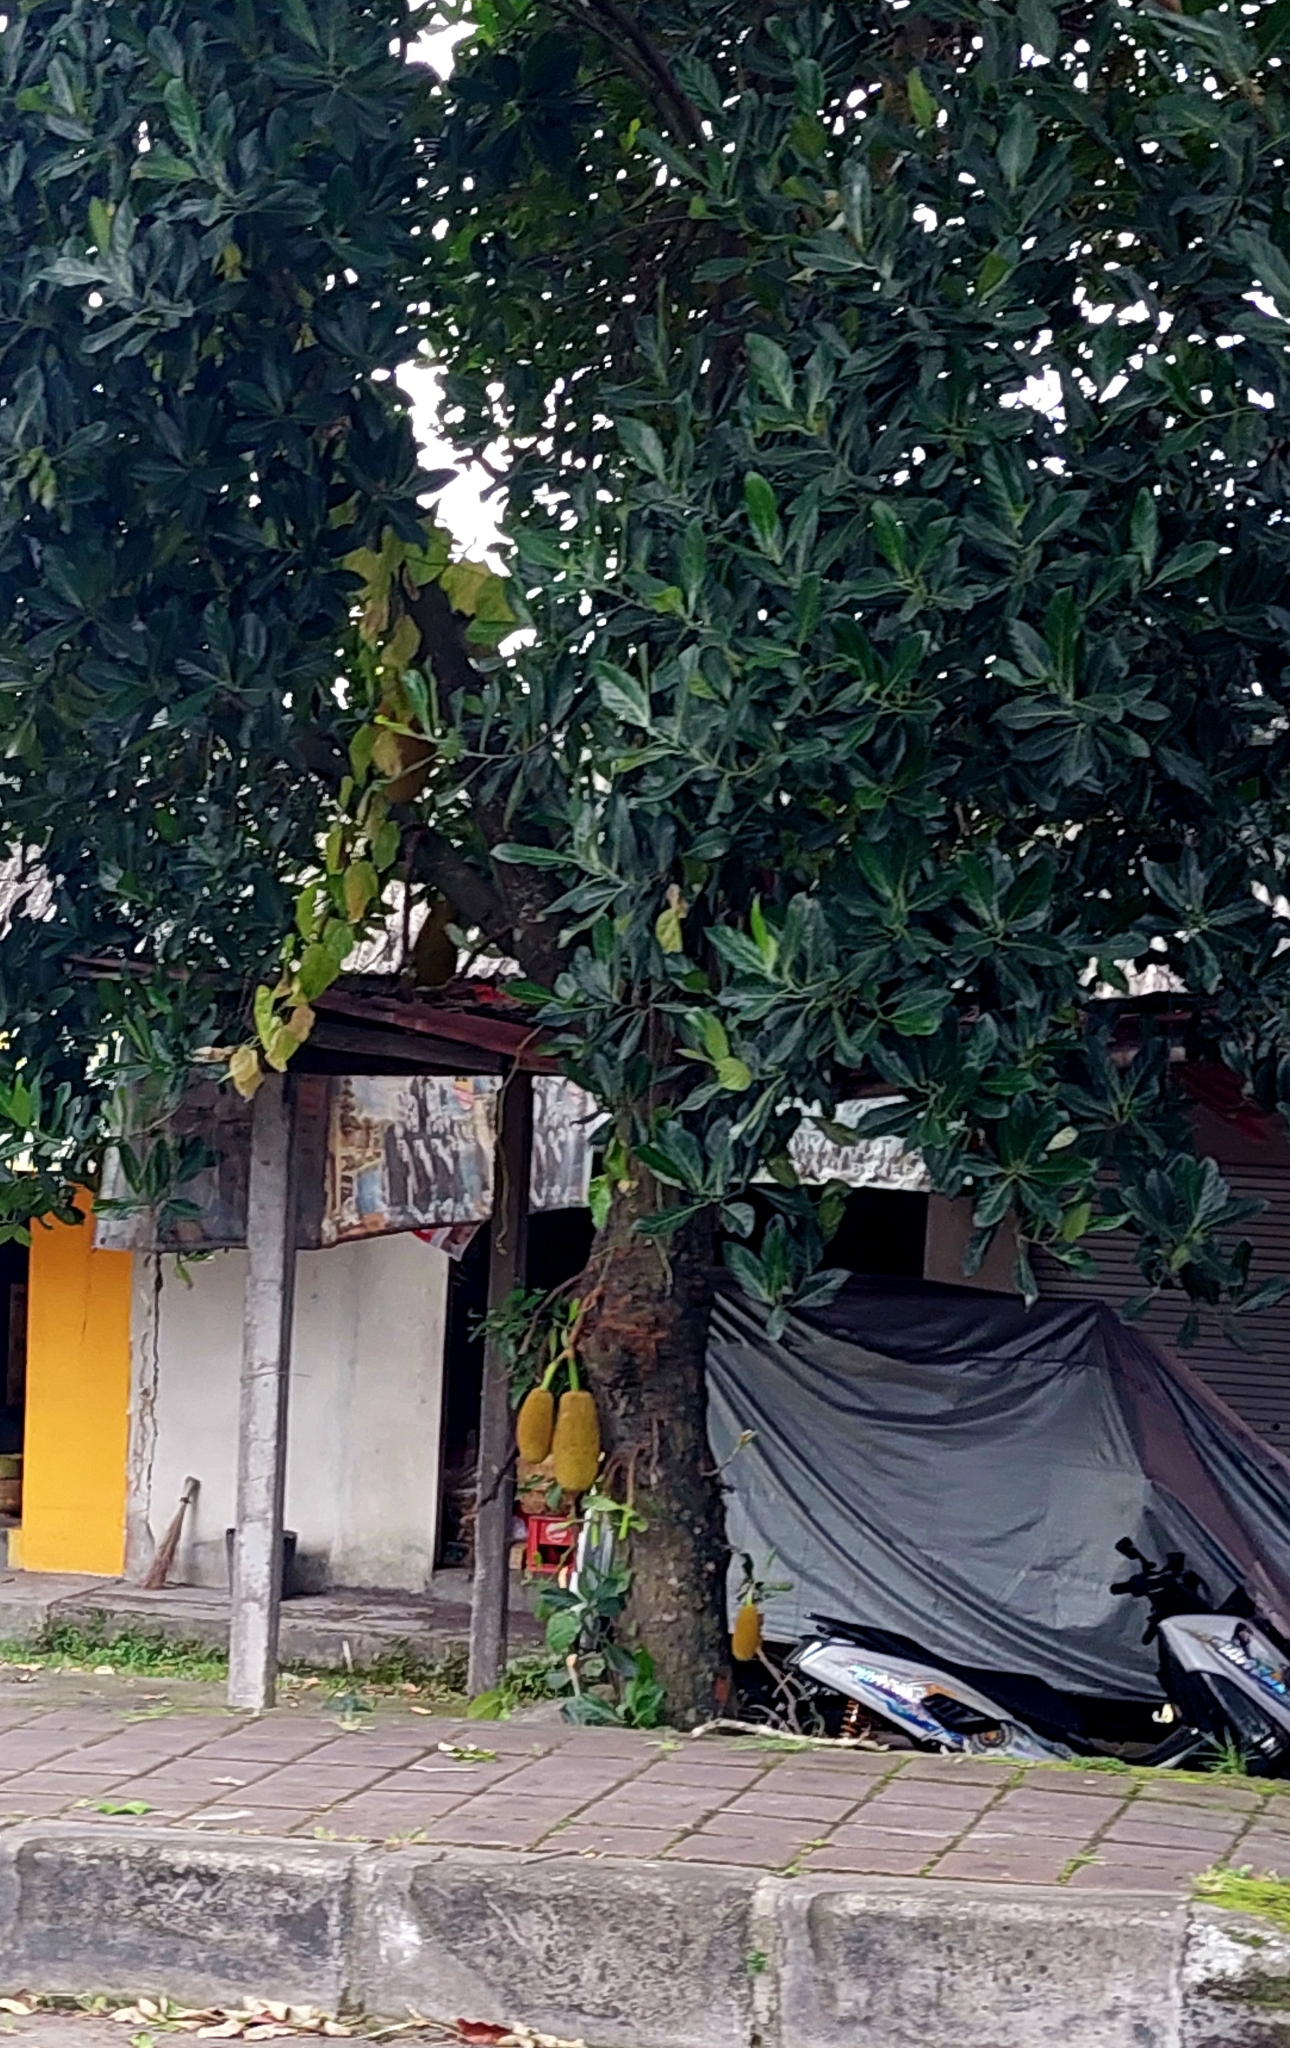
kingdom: Plantae
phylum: Tracheophyta
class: Magnoliopsida
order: Rosales
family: Moraceae
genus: Artocarpus
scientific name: Artocarpus heterophyllus
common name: Jackfruit
